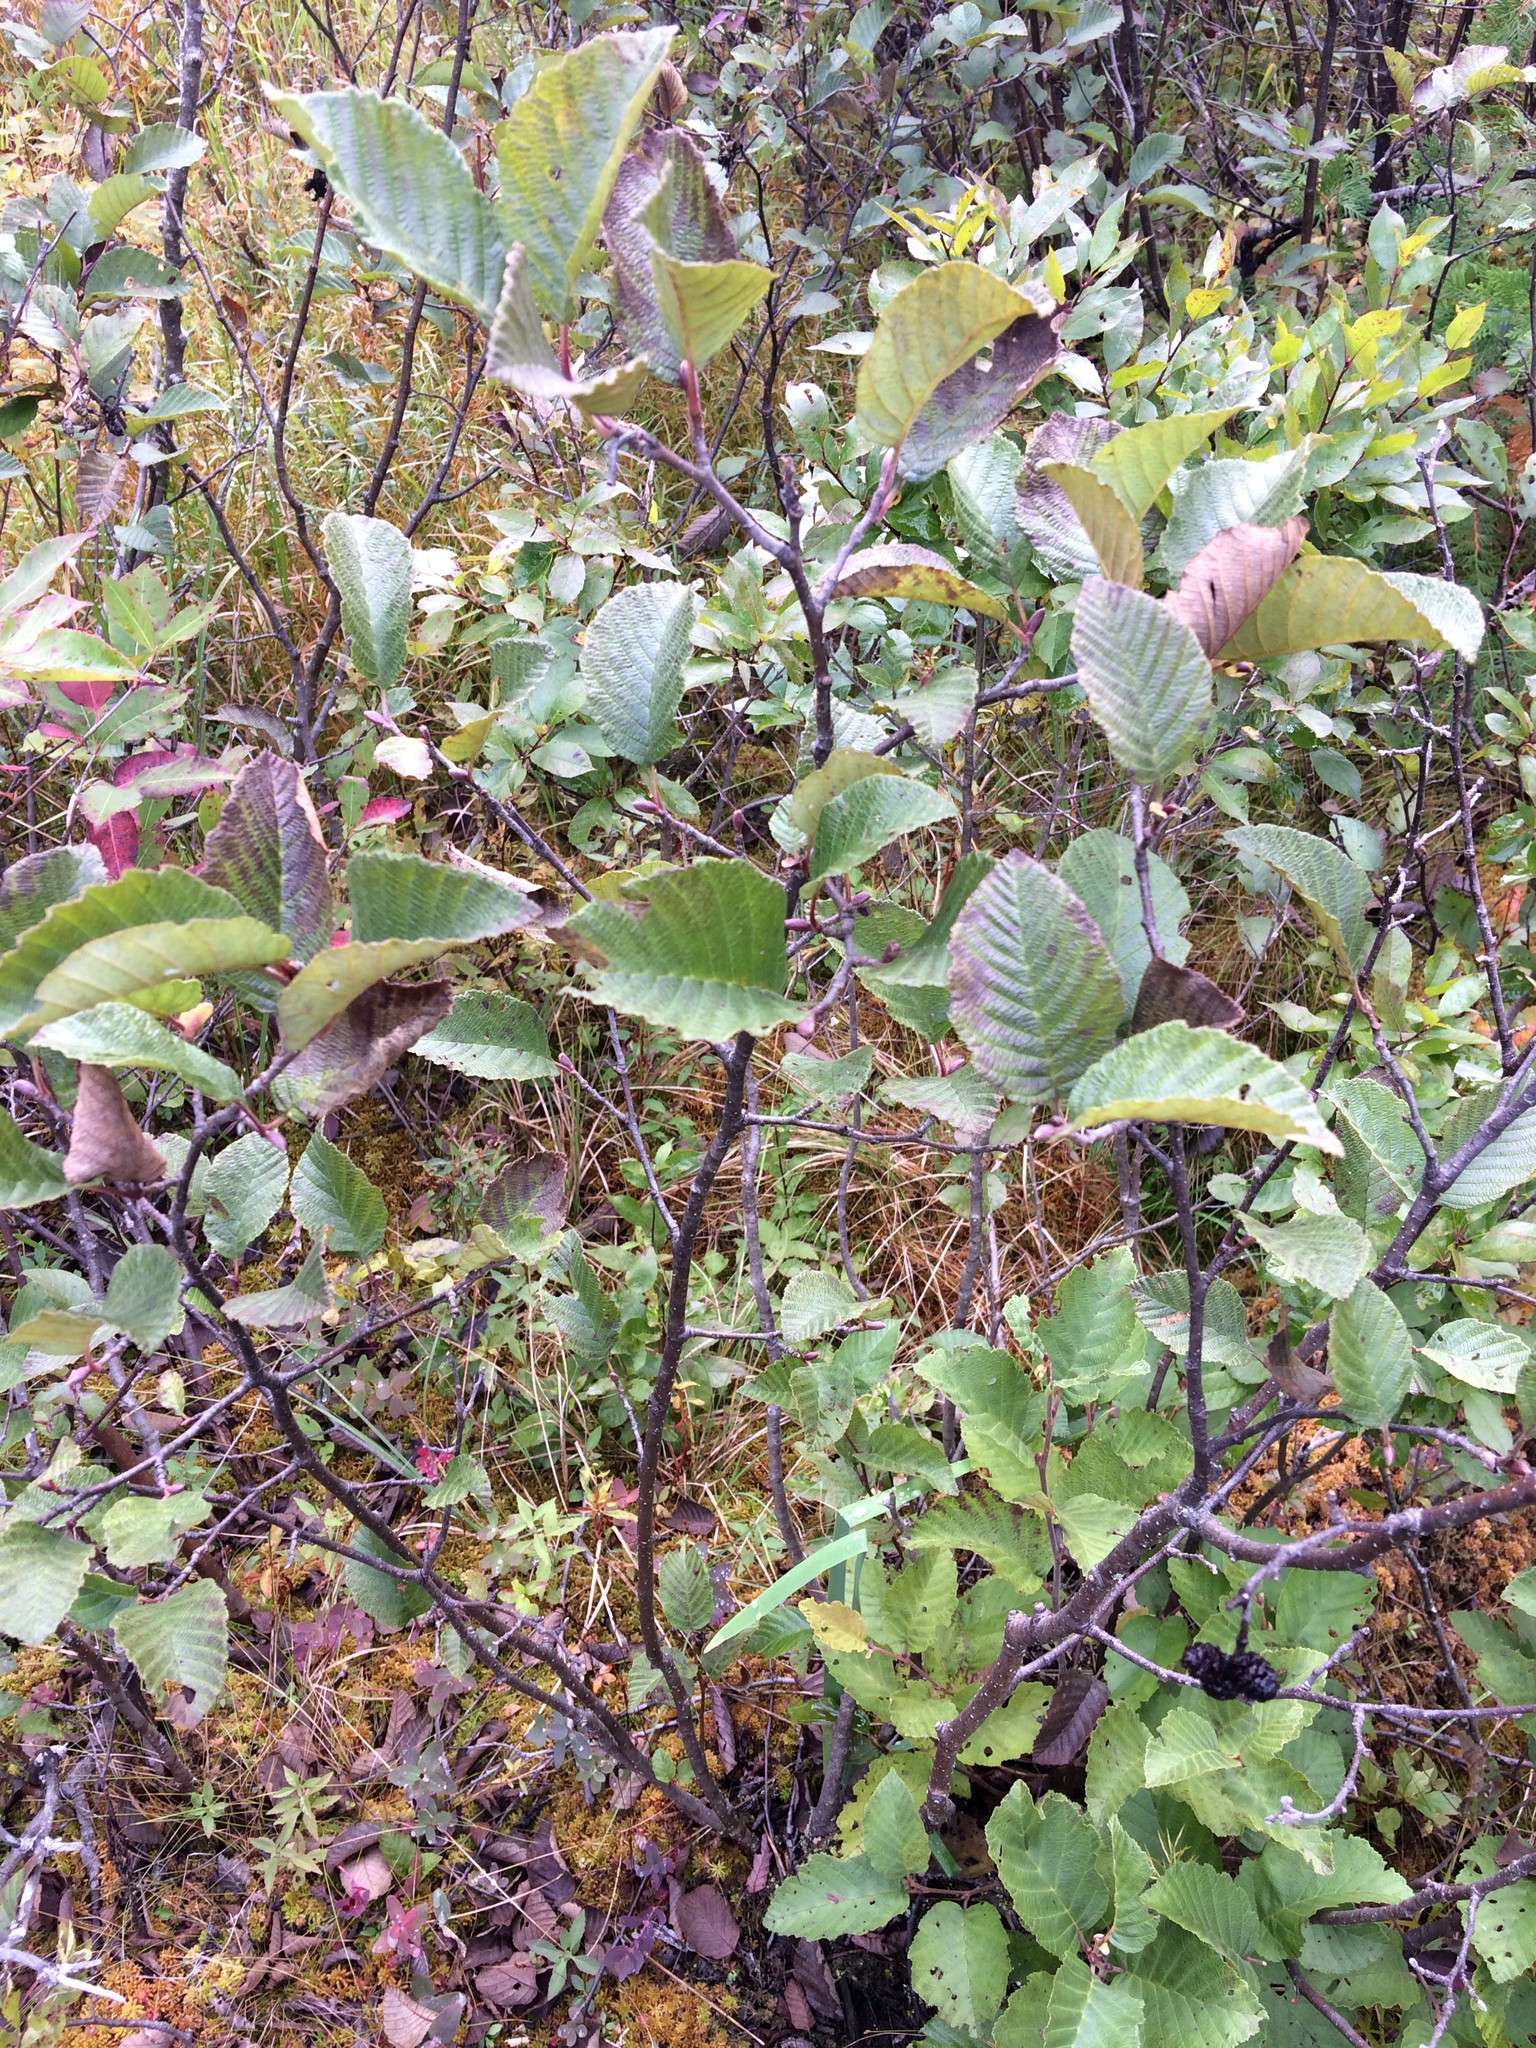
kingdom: Plantae
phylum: Tracheophyta
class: Magnoliopsida
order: Fagales
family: Betulaceae
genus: Alnus
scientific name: Alnus incana
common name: Grey alder
